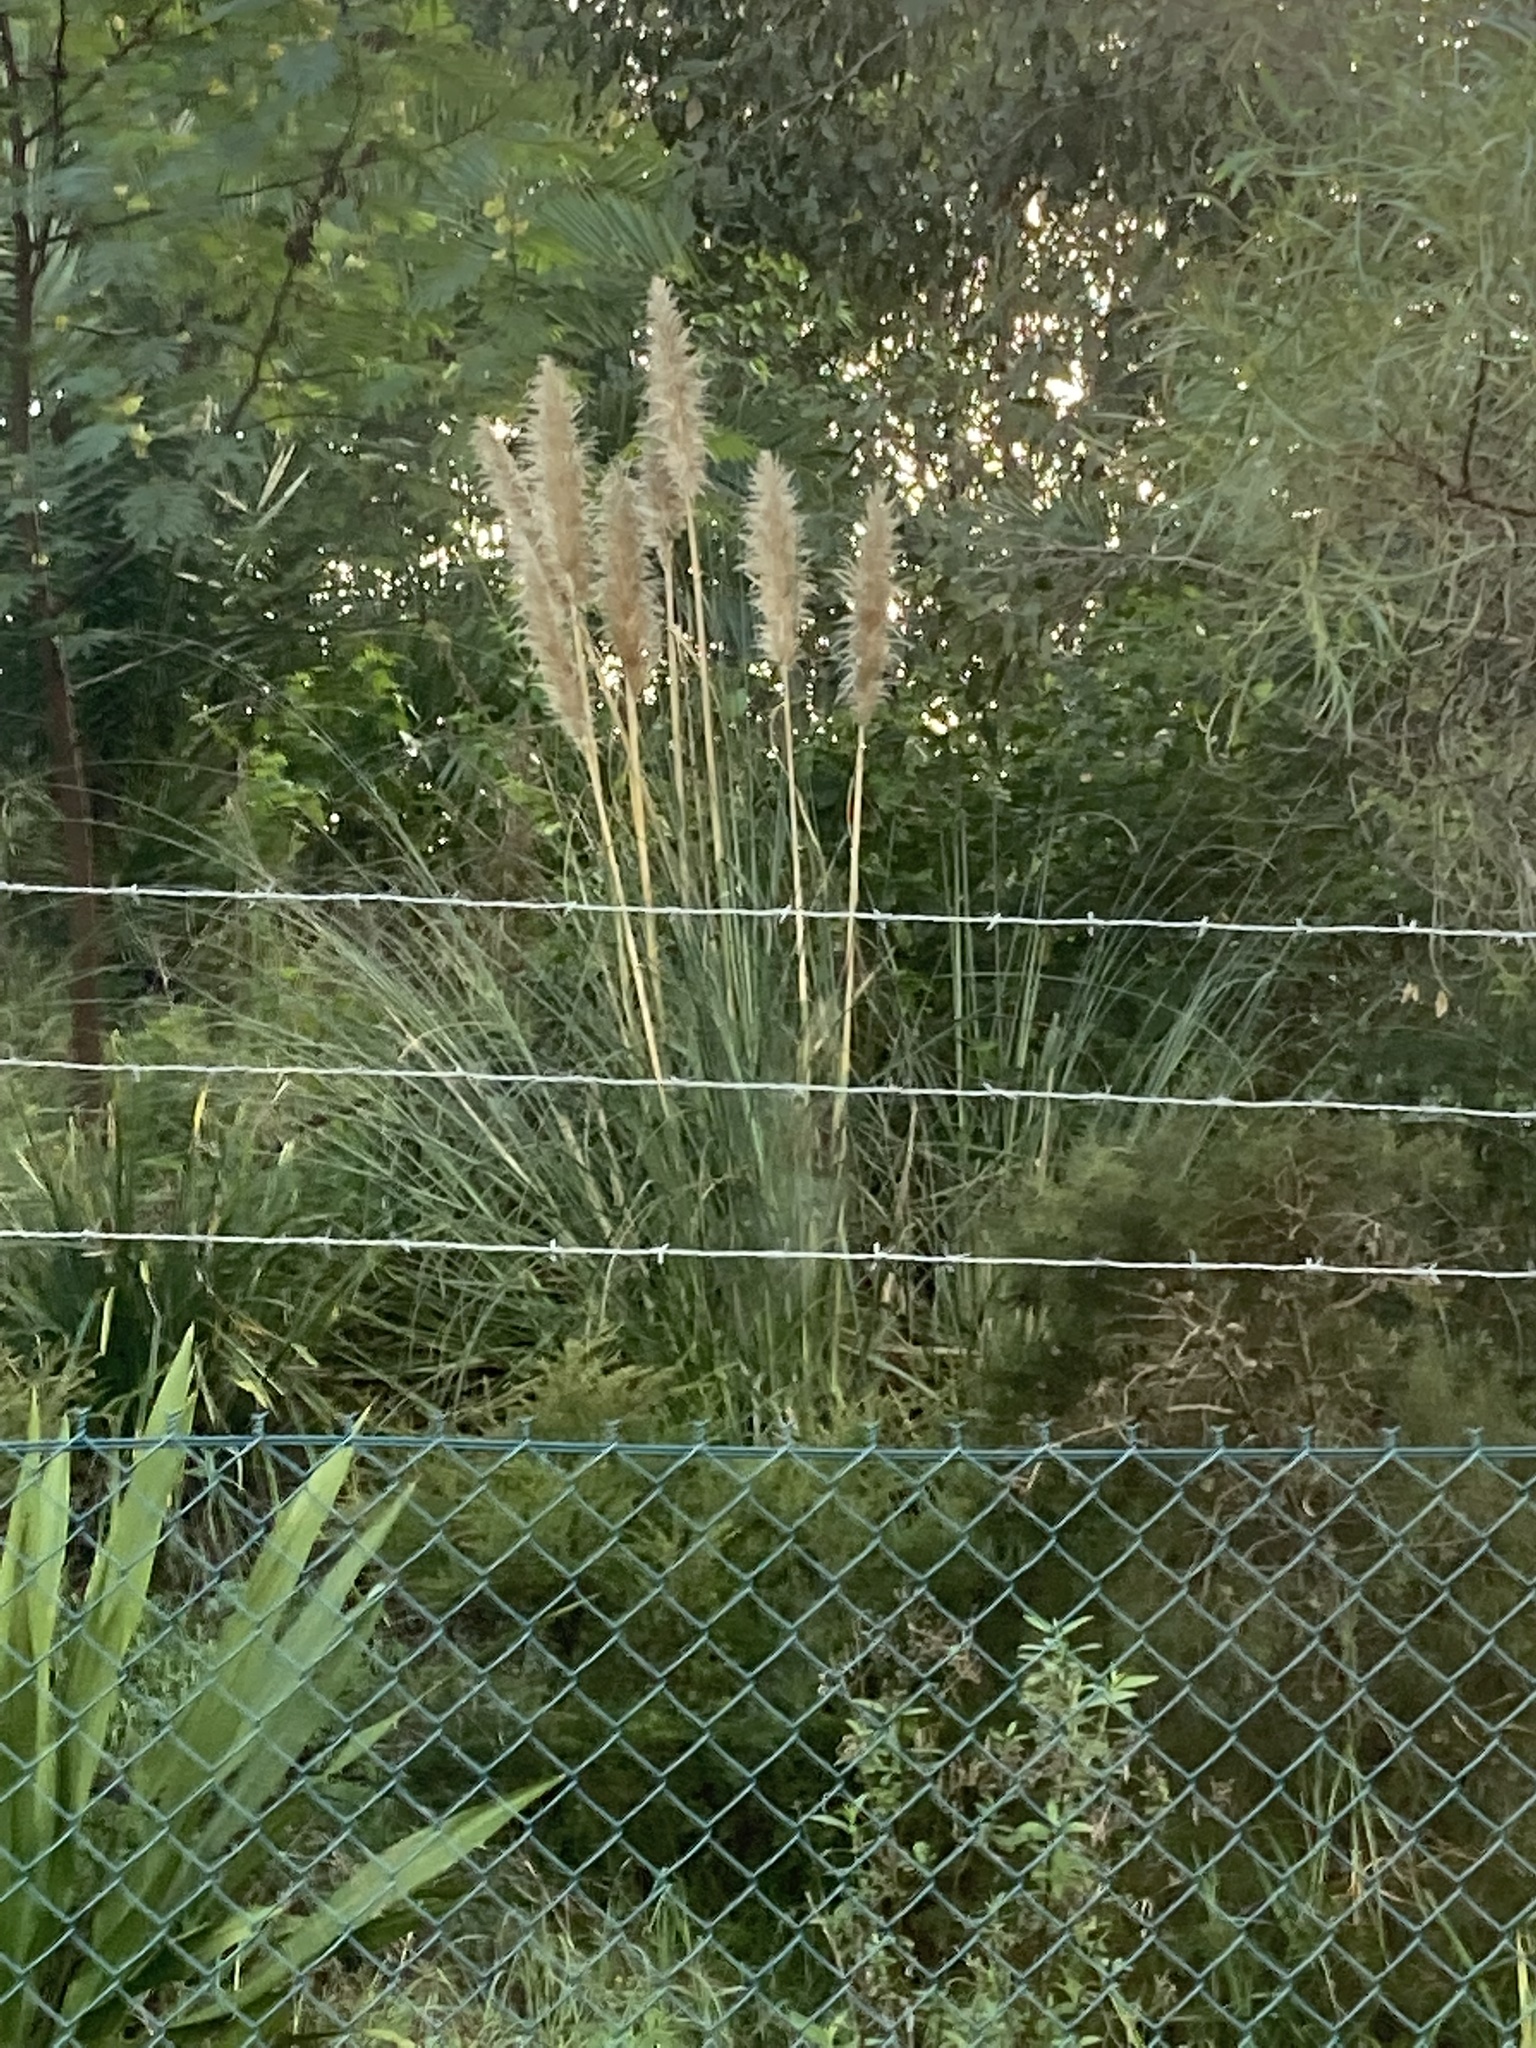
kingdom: Plantae
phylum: Tracheophyta
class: Liliopsida
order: Poales
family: Poaceae
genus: Cortaderia
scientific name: Cortaderia selloana
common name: Uruguayan pampas grass
